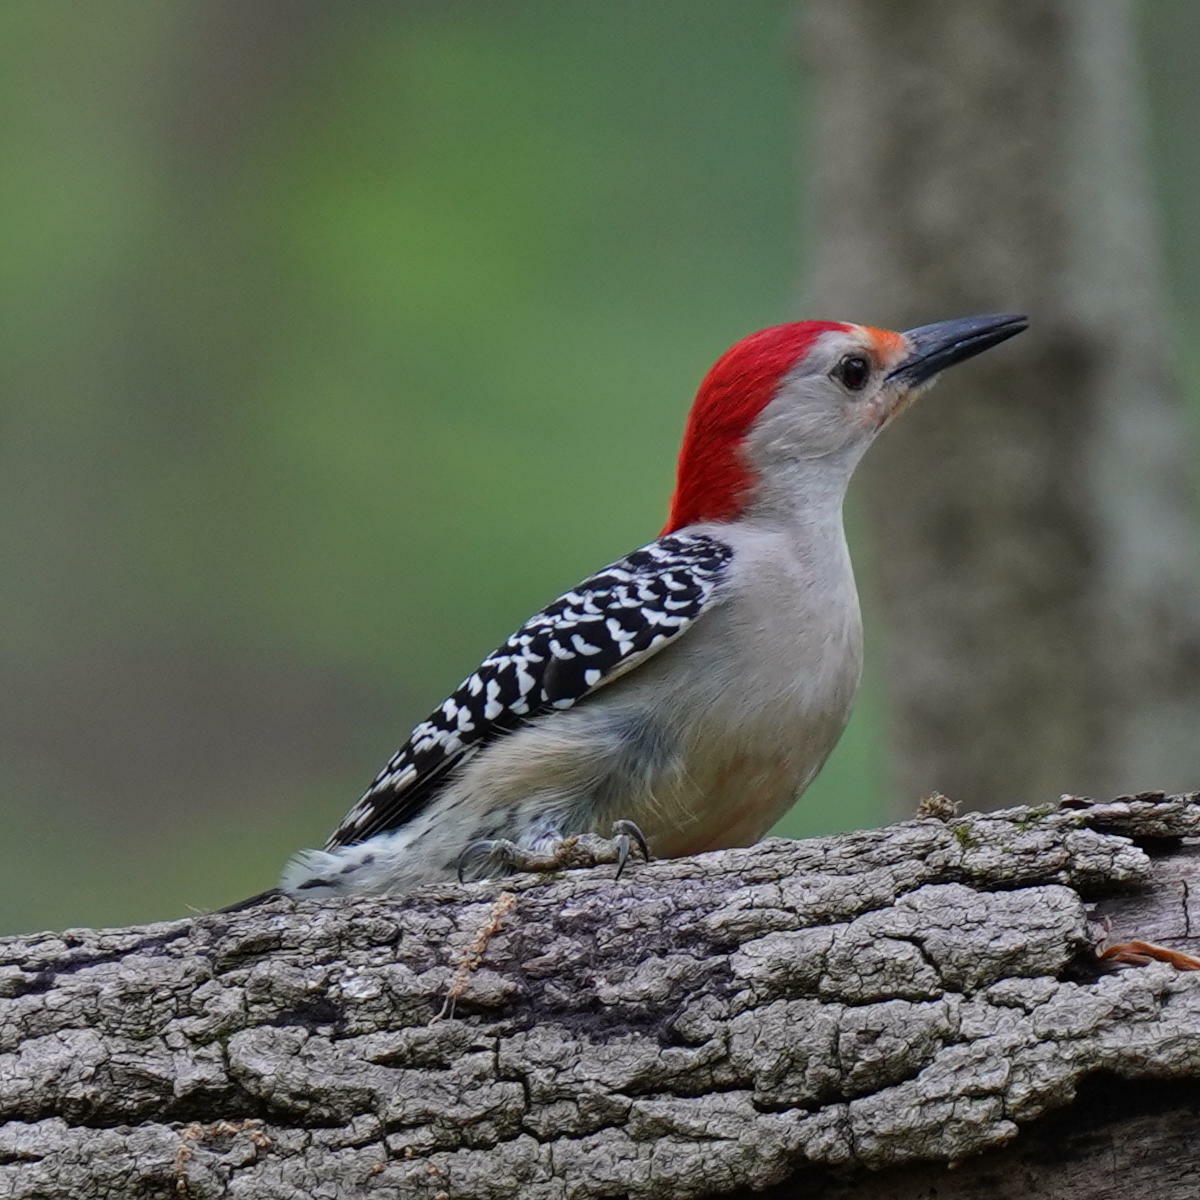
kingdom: Animalia
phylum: Chordata
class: Aves
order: Piciformes
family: Picidae
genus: Melanerpes
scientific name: Melanerpes carolinus
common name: Red-bellied woodpecker
